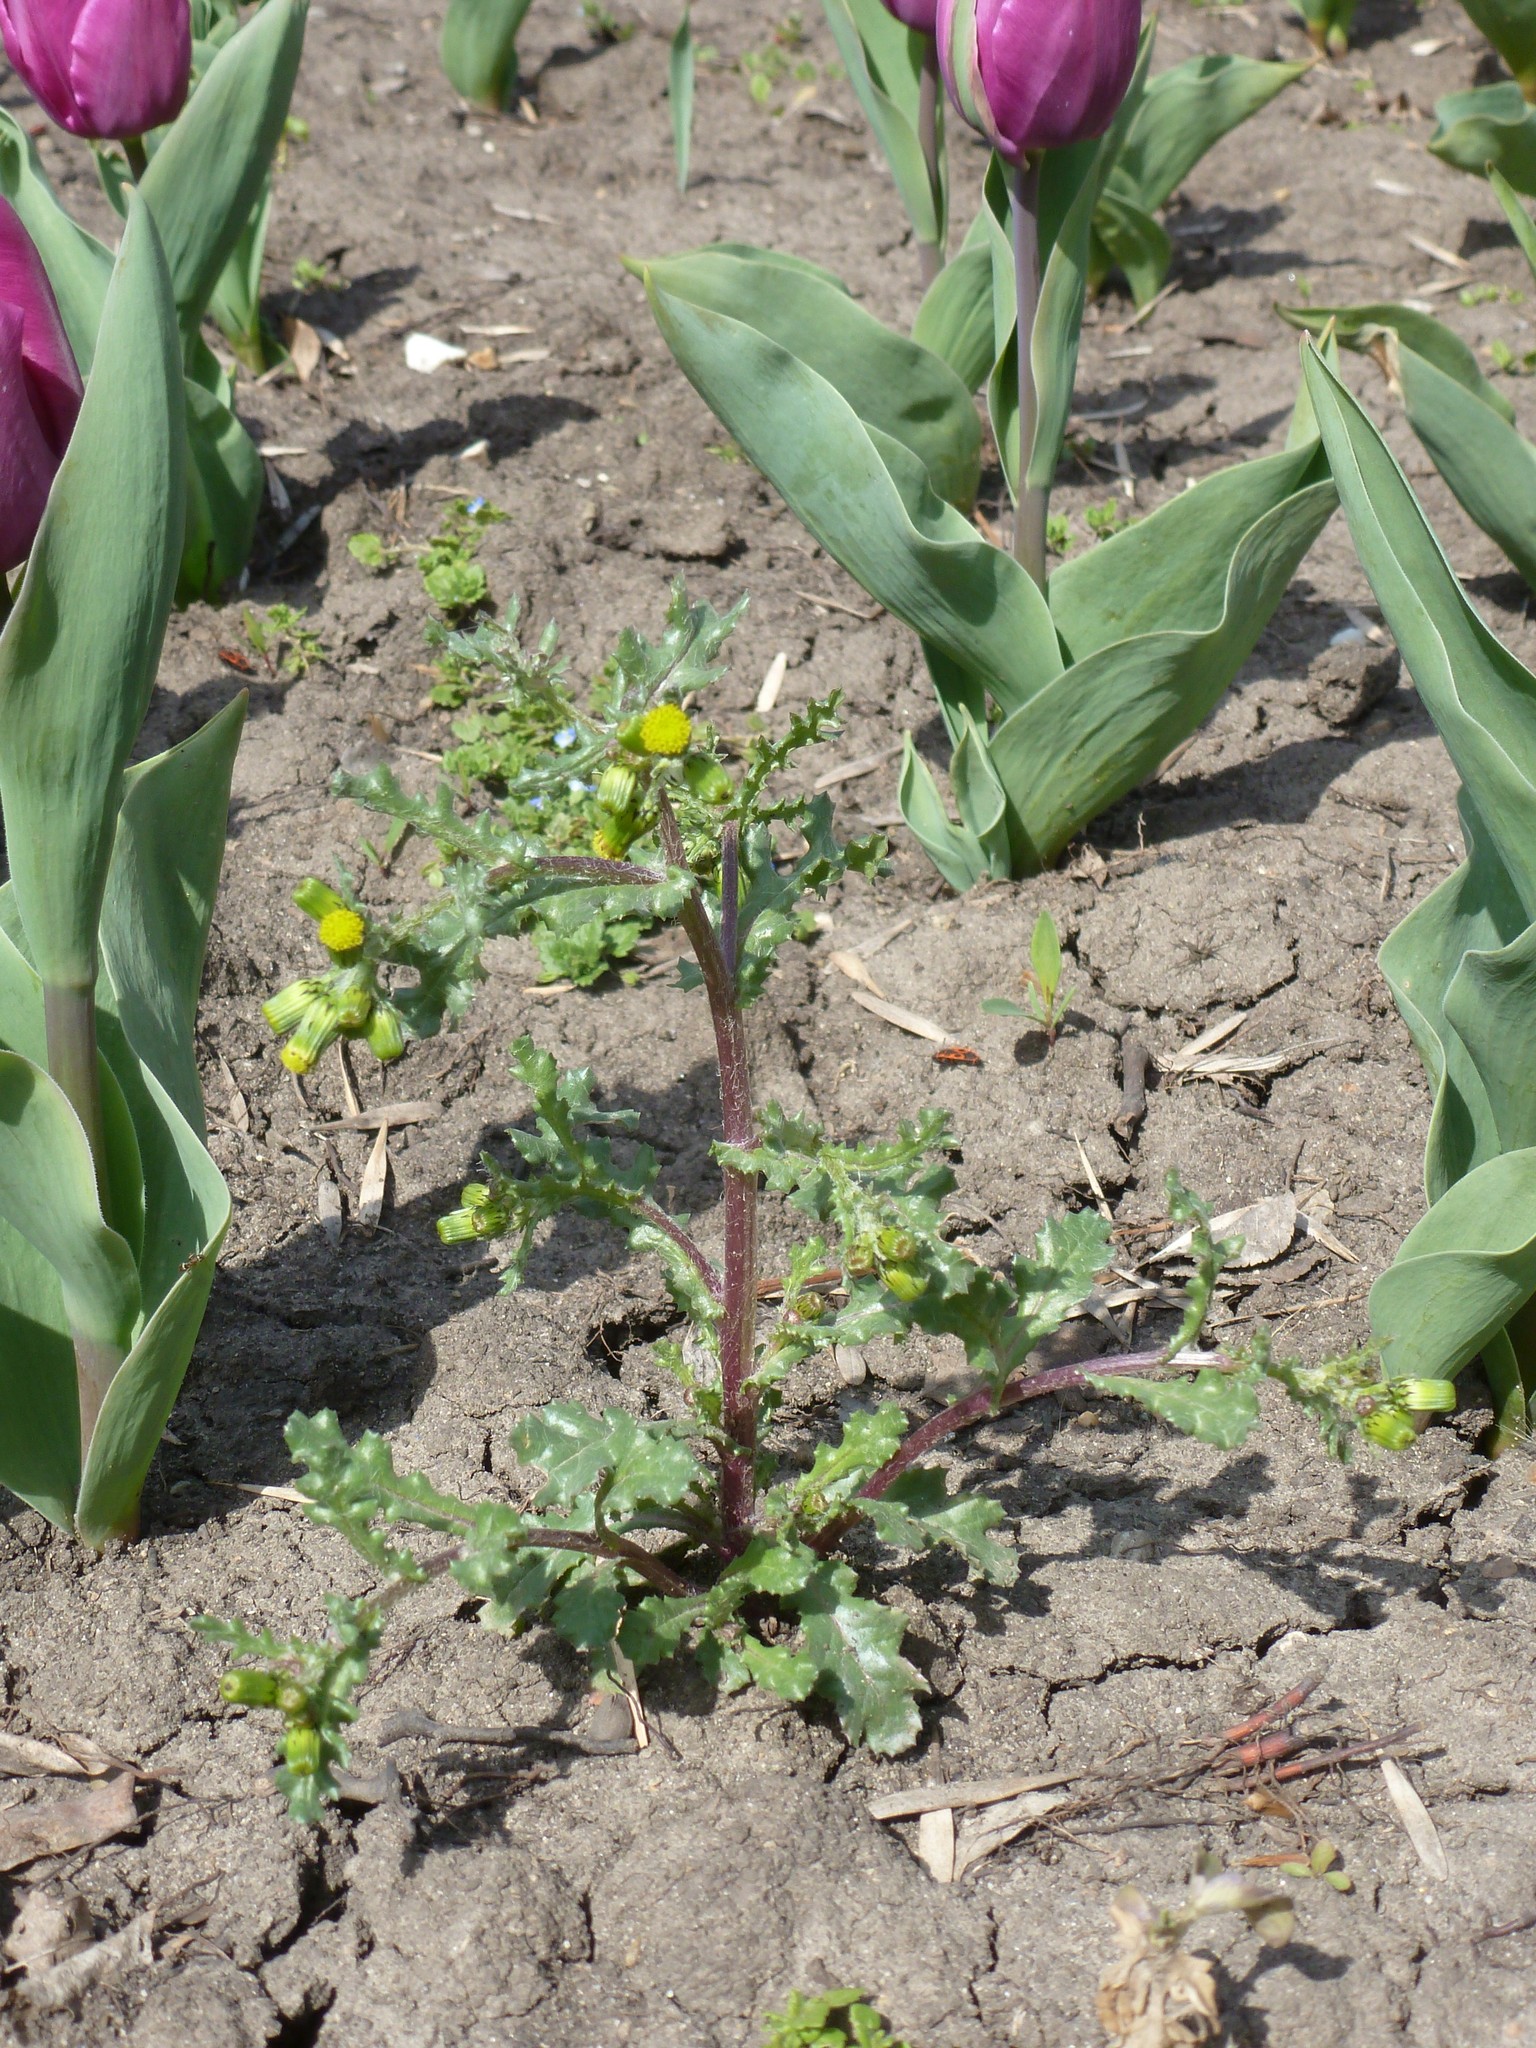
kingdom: Plantae
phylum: Tracheophyta
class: Magnoliopsida
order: Asterales
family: Asteraceae
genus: Senecio
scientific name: Senecio vulgaris
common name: Old-man-in-the-spring
